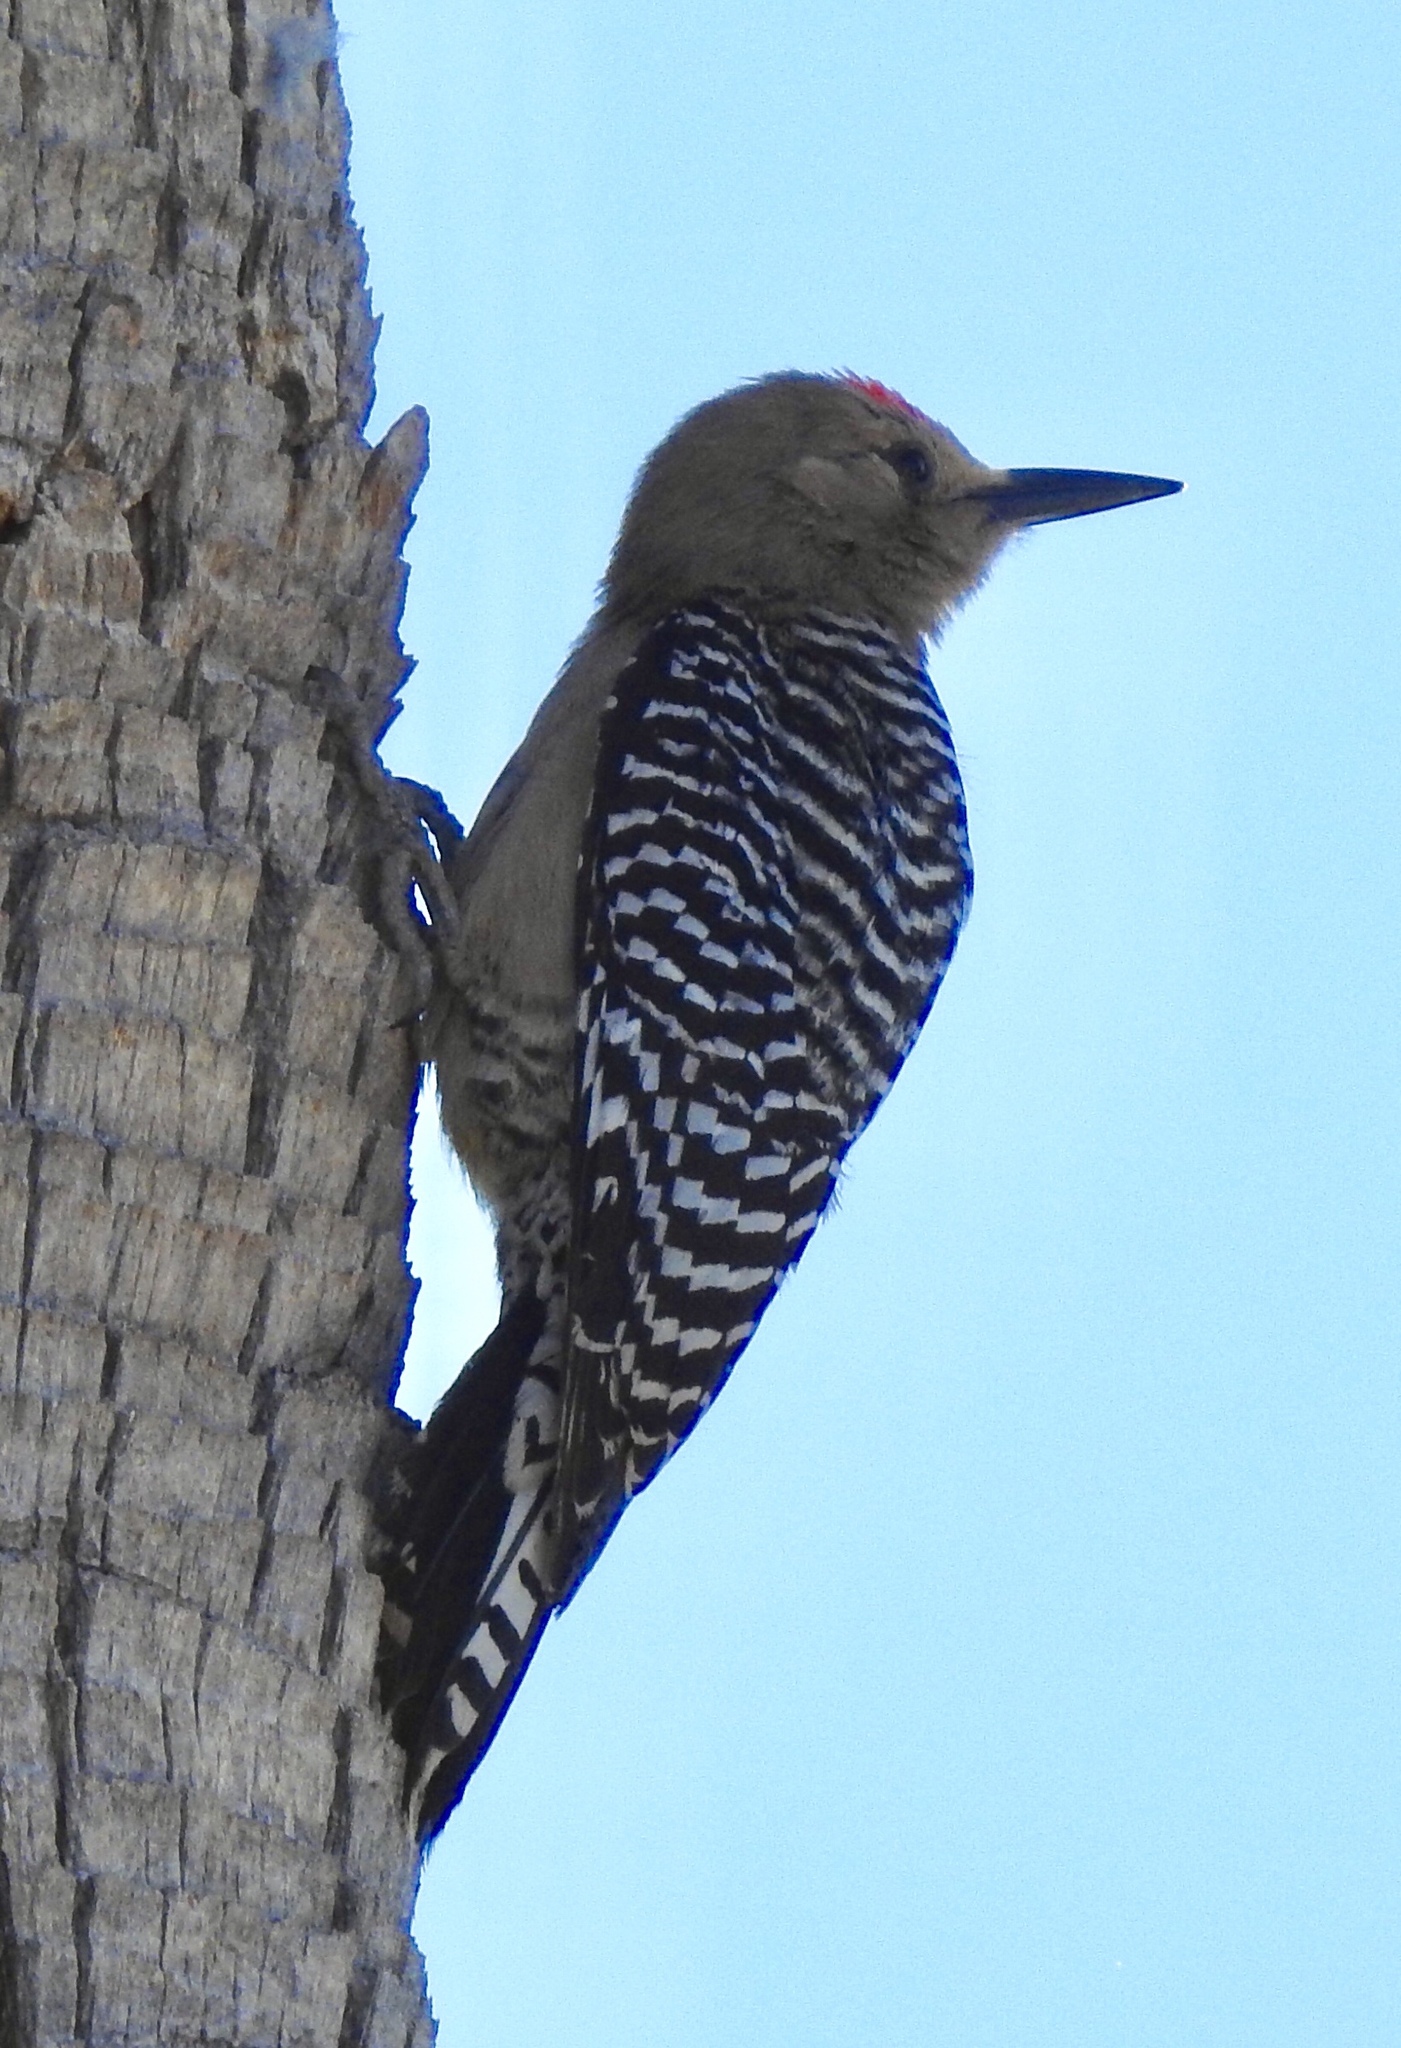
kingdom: Animalia
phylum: Chordata
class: Aves
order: Piciformes
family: Picidae
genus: Melanerpes
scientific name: Melanerpes uropygialis
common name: Gila woodpecker
